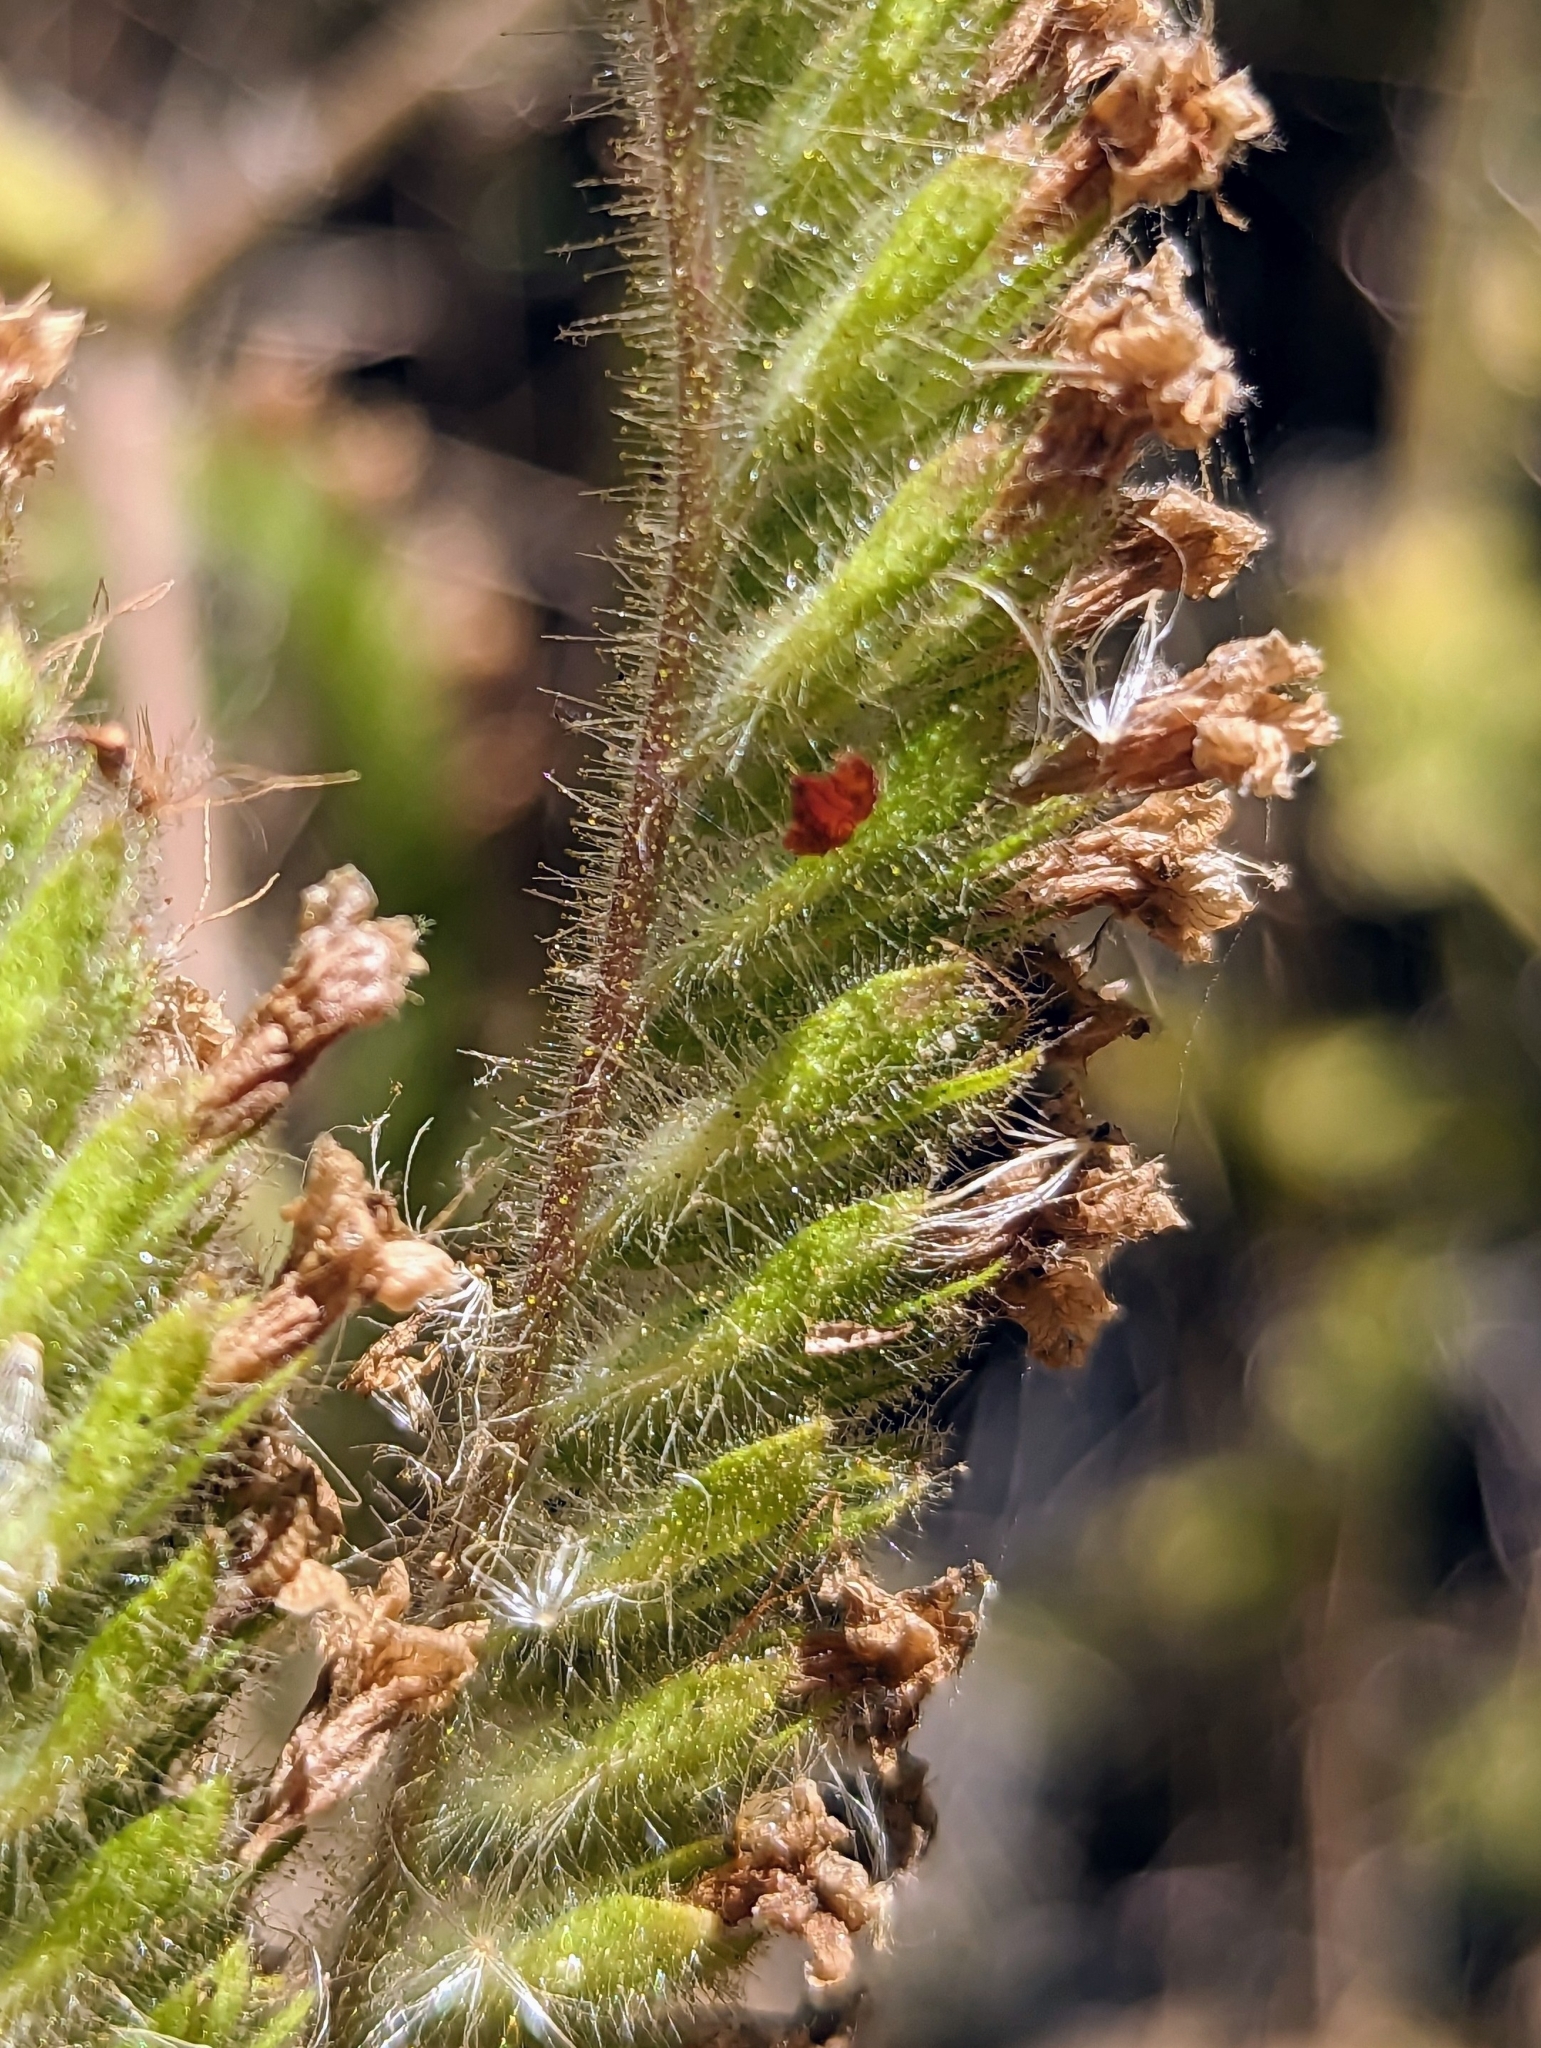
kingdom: Plantae
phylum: Tracheophyta
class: Magnoliopsida
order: Boraginales
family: Hydrophyllaceae
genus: Phacelia
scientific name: Phacelia ramosissima
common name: Branching phacelia
